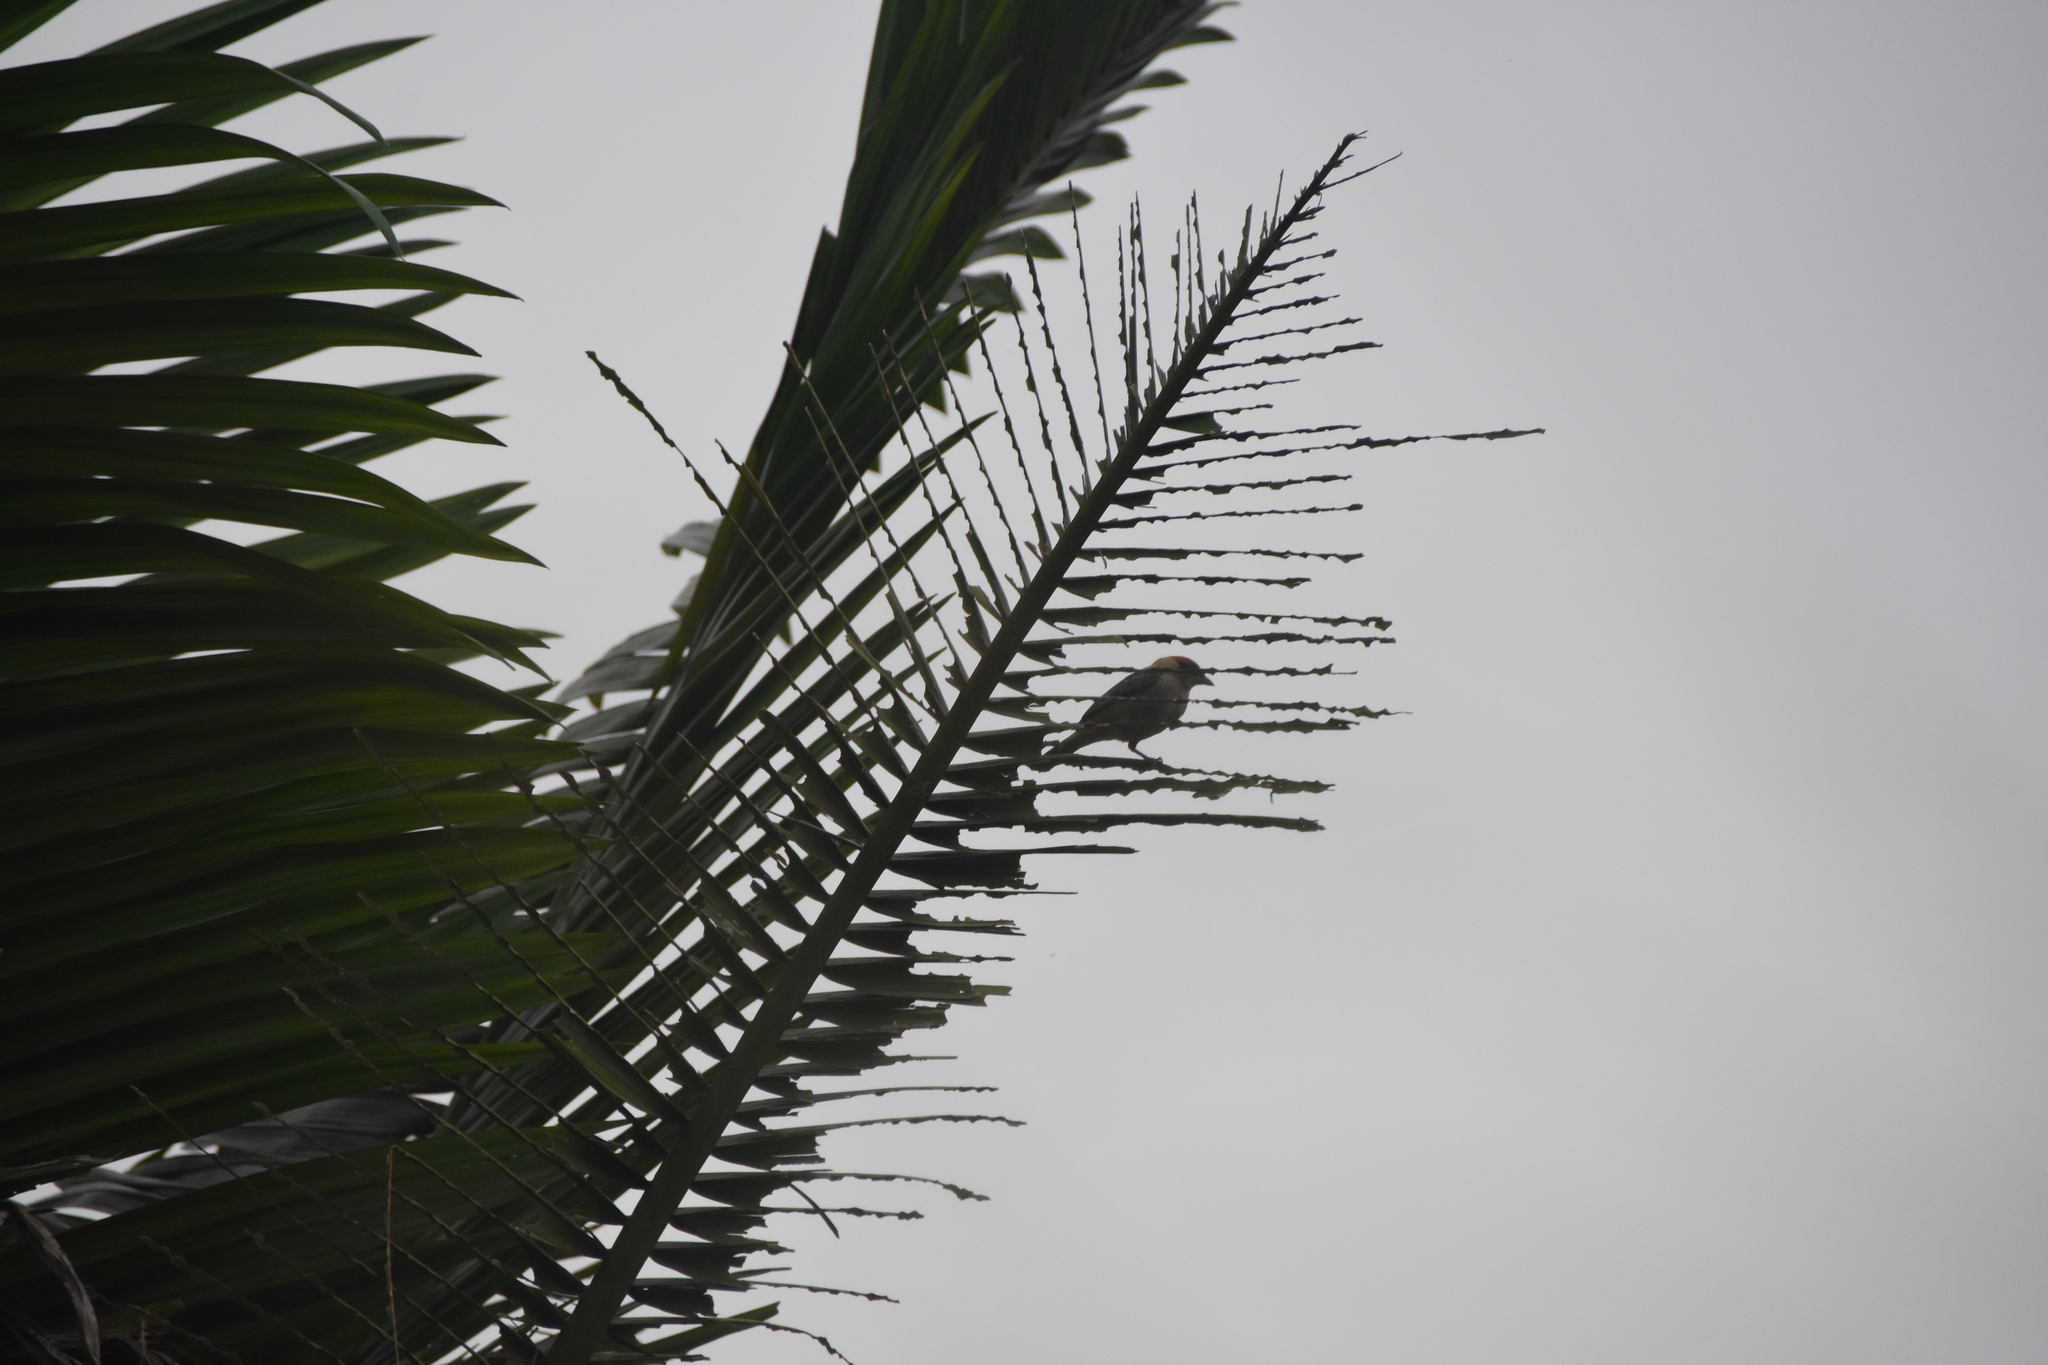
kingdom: Animalia
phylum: Chordata
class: Aves
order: Passeriformes
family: Thraupidae
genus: Stilpnia
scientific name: Stilpnia vitriolina
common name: Scrub tanager
